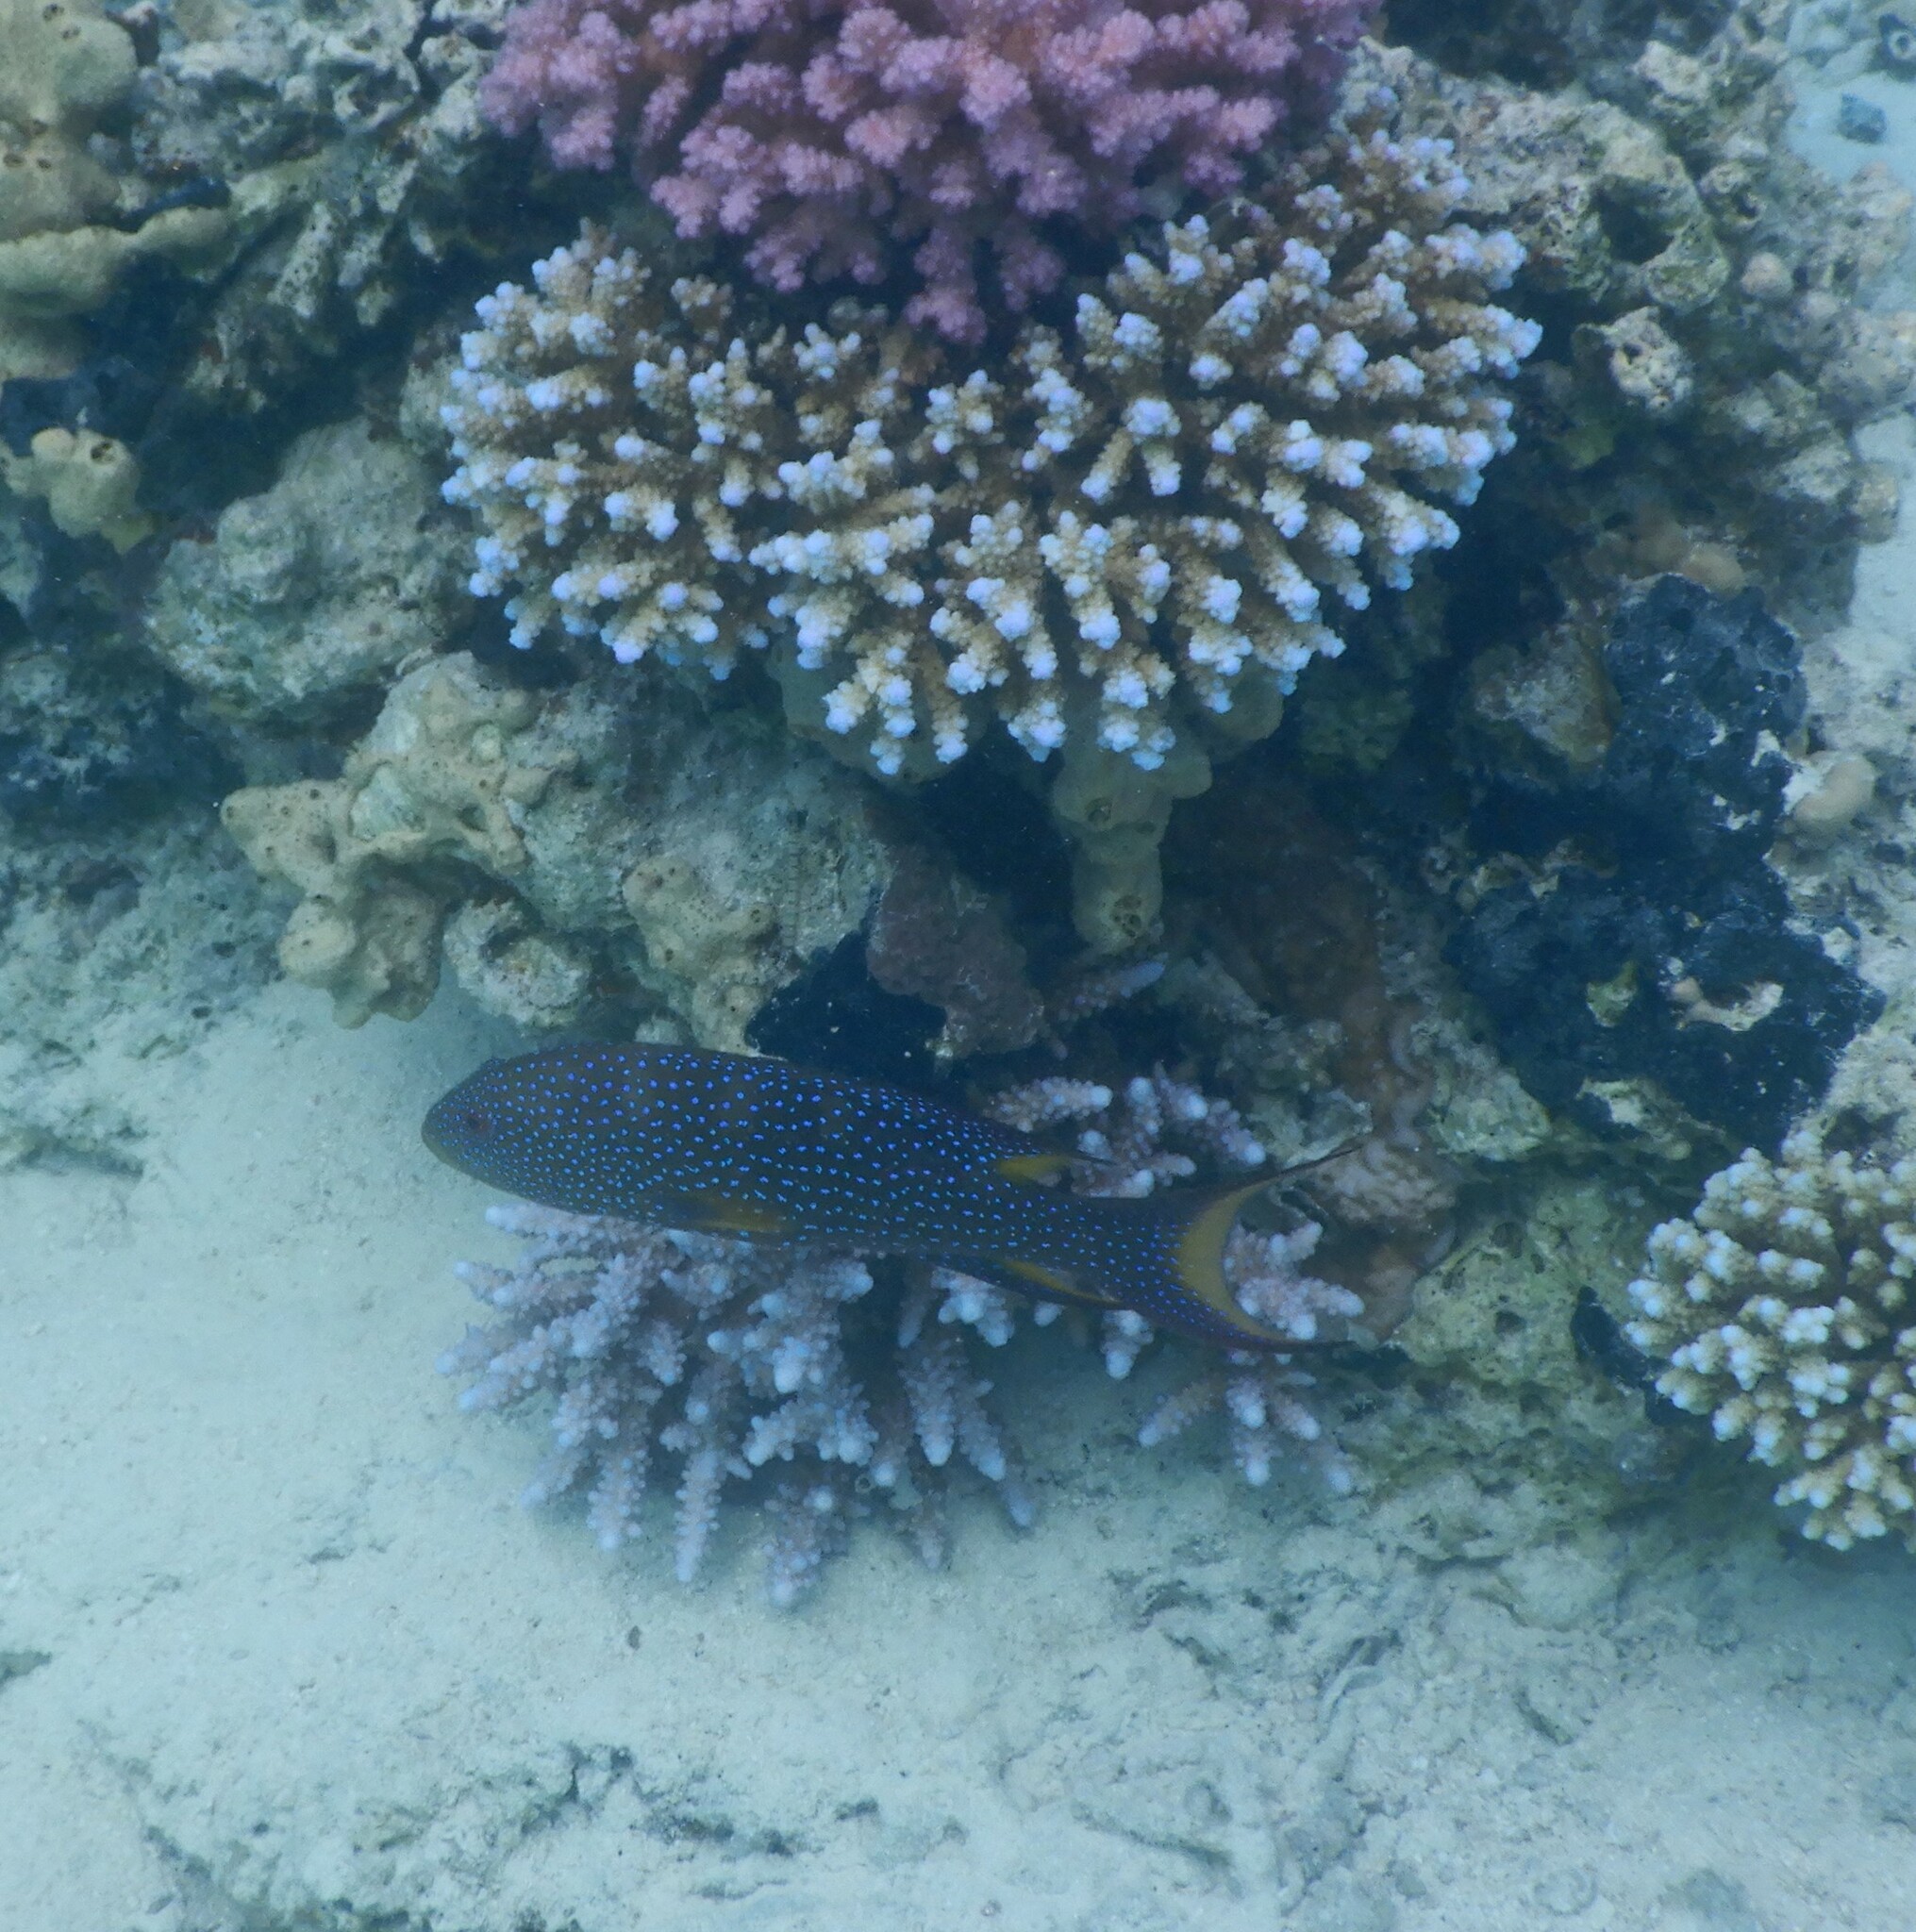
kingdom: Animalia
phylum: Chordata
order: Perciformes
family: Serranidae
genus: Variola
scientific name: Variola louti
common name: Yellow-edged lyretail
